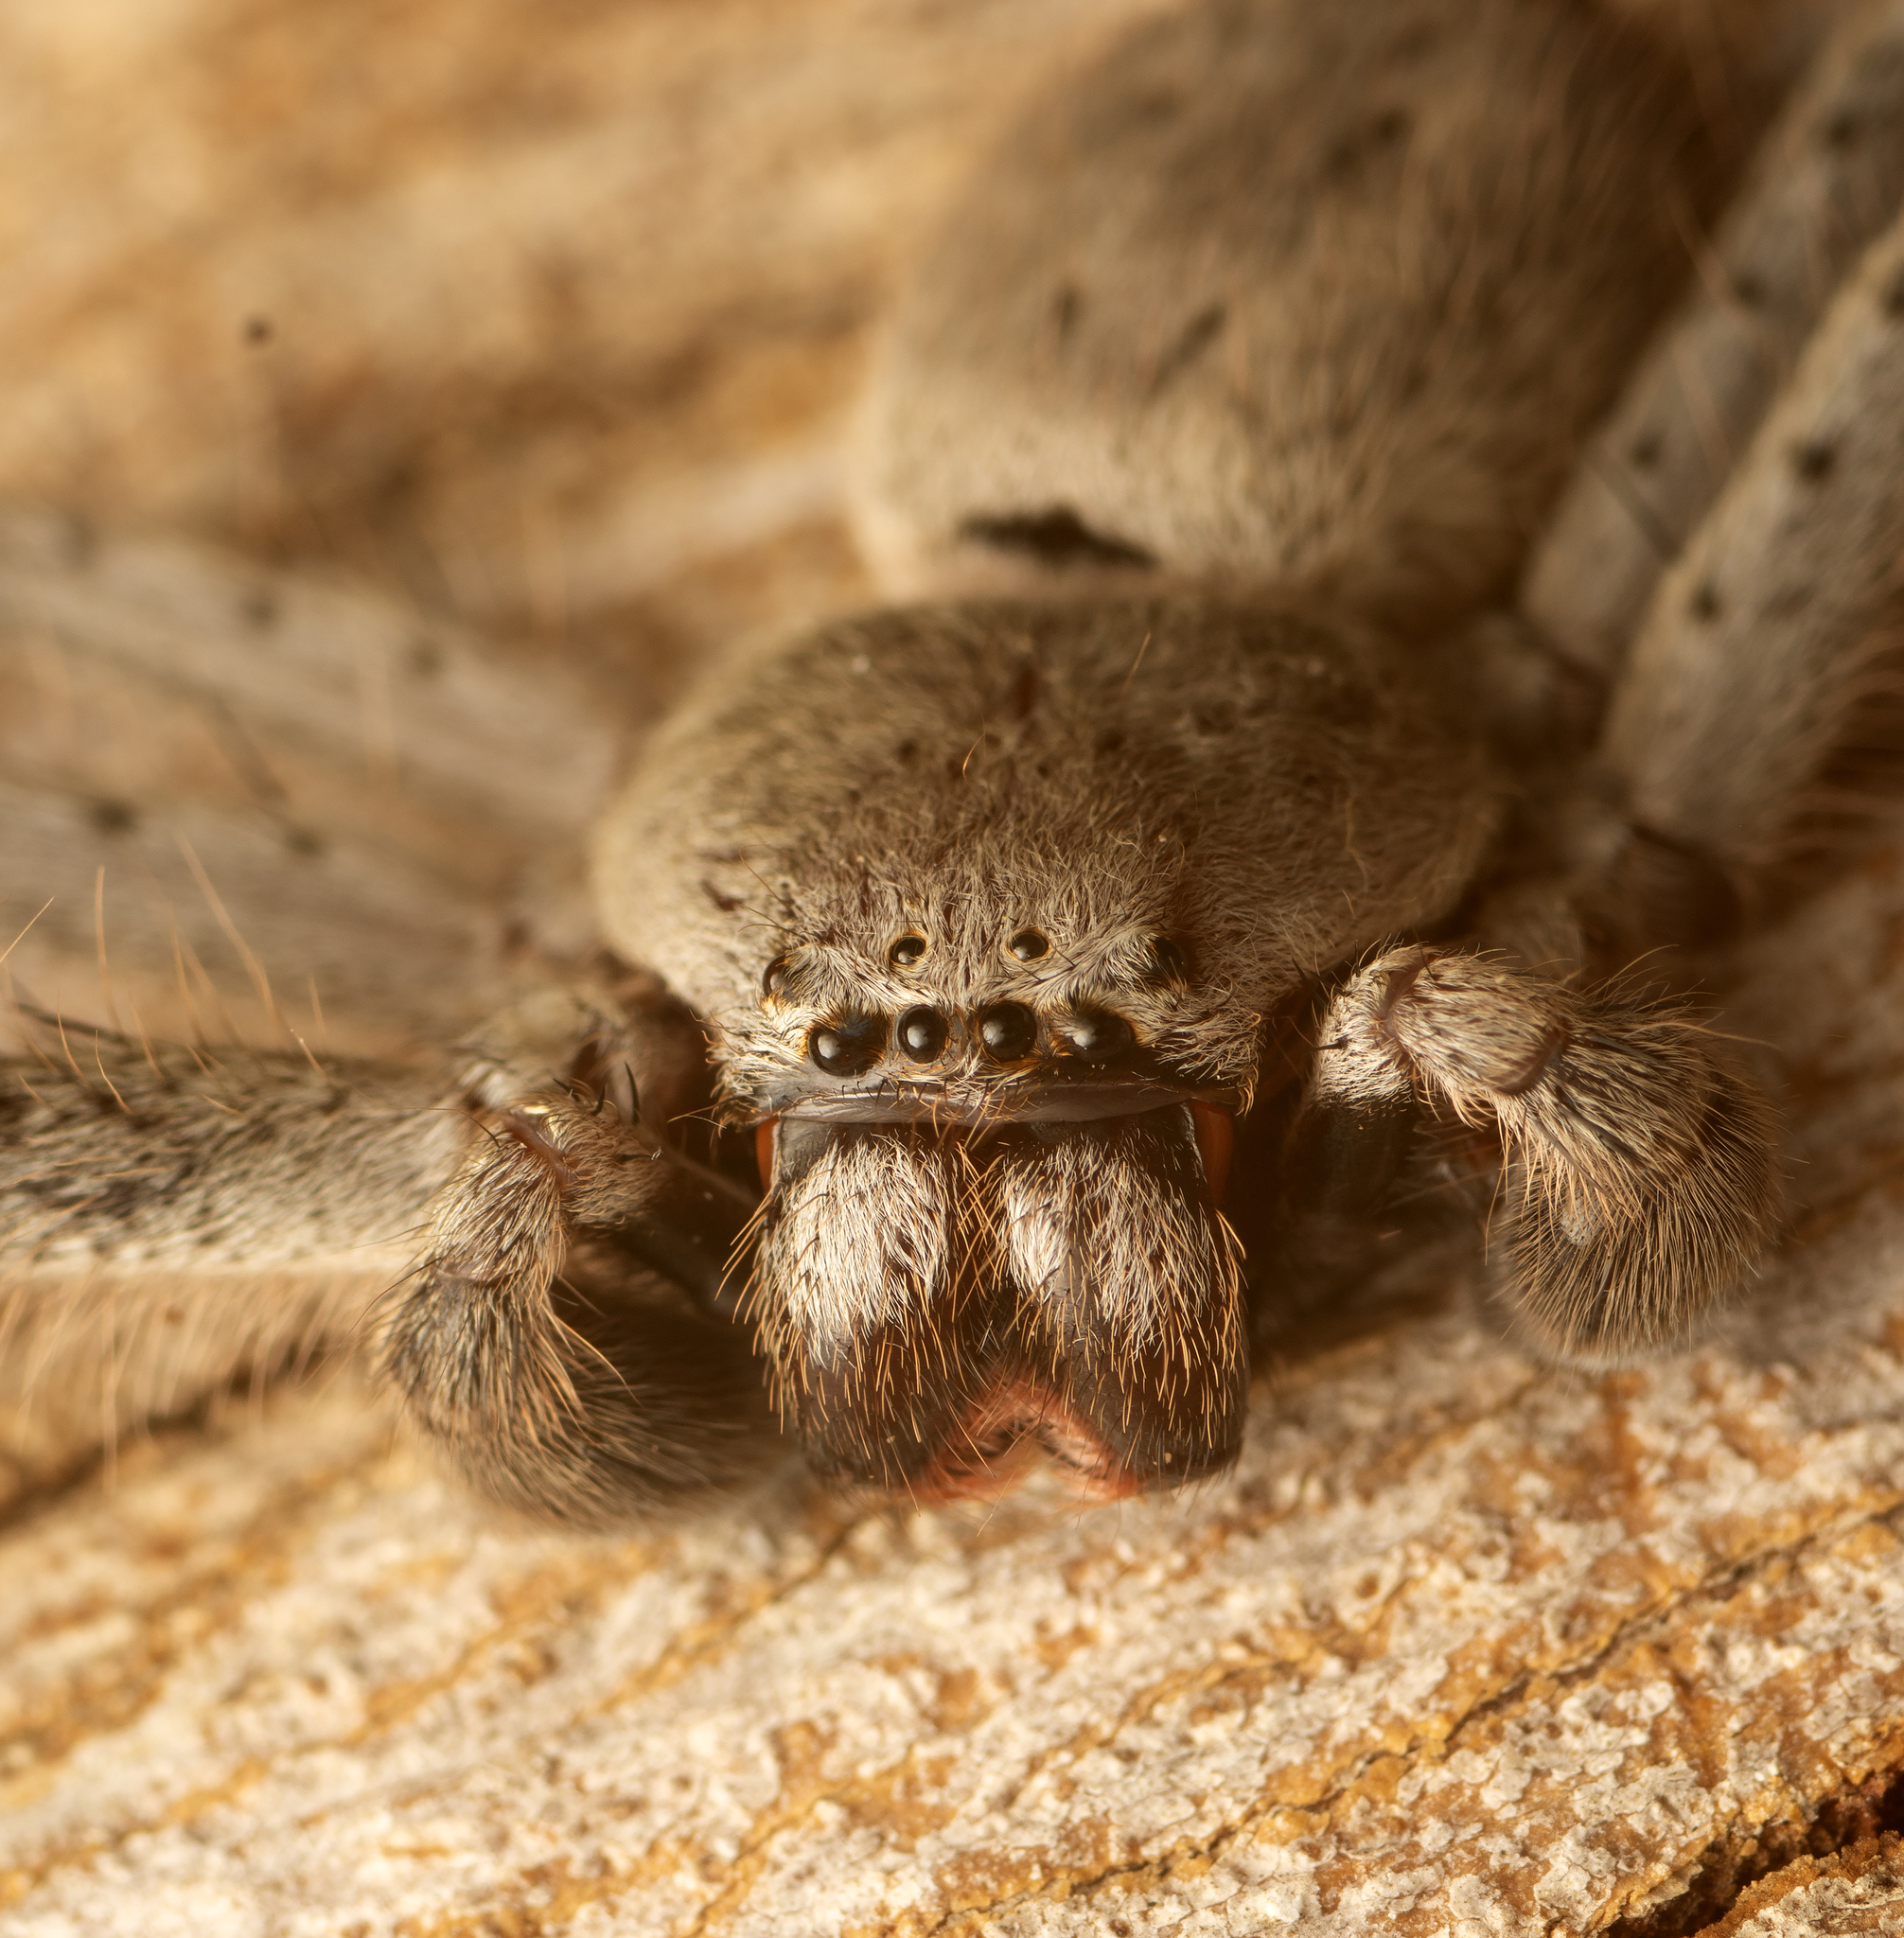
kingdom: Animalia
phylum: Arthropoda
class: Arachnida
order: Araneae
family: Sparassidae
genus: Isopeda
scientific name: Isopeda canberrana
